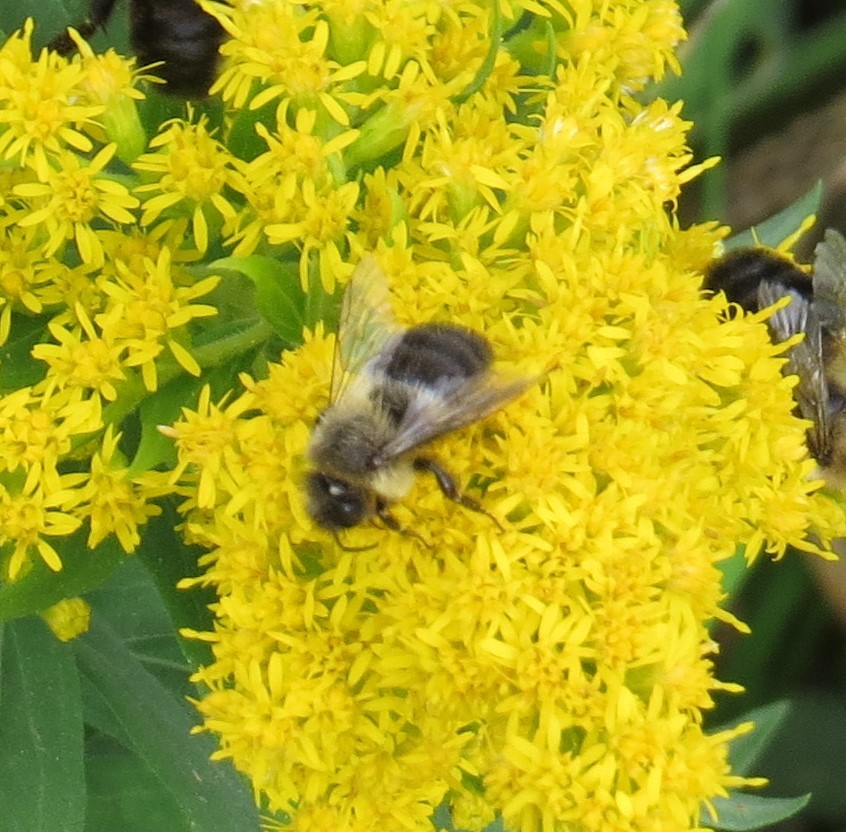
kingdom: Animalia
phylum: Arthropoda
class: Insecta
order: Hymenoptera
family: Apidae
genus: Bombus
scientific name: Bombus impatiens
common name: Common eastern bumble bee
